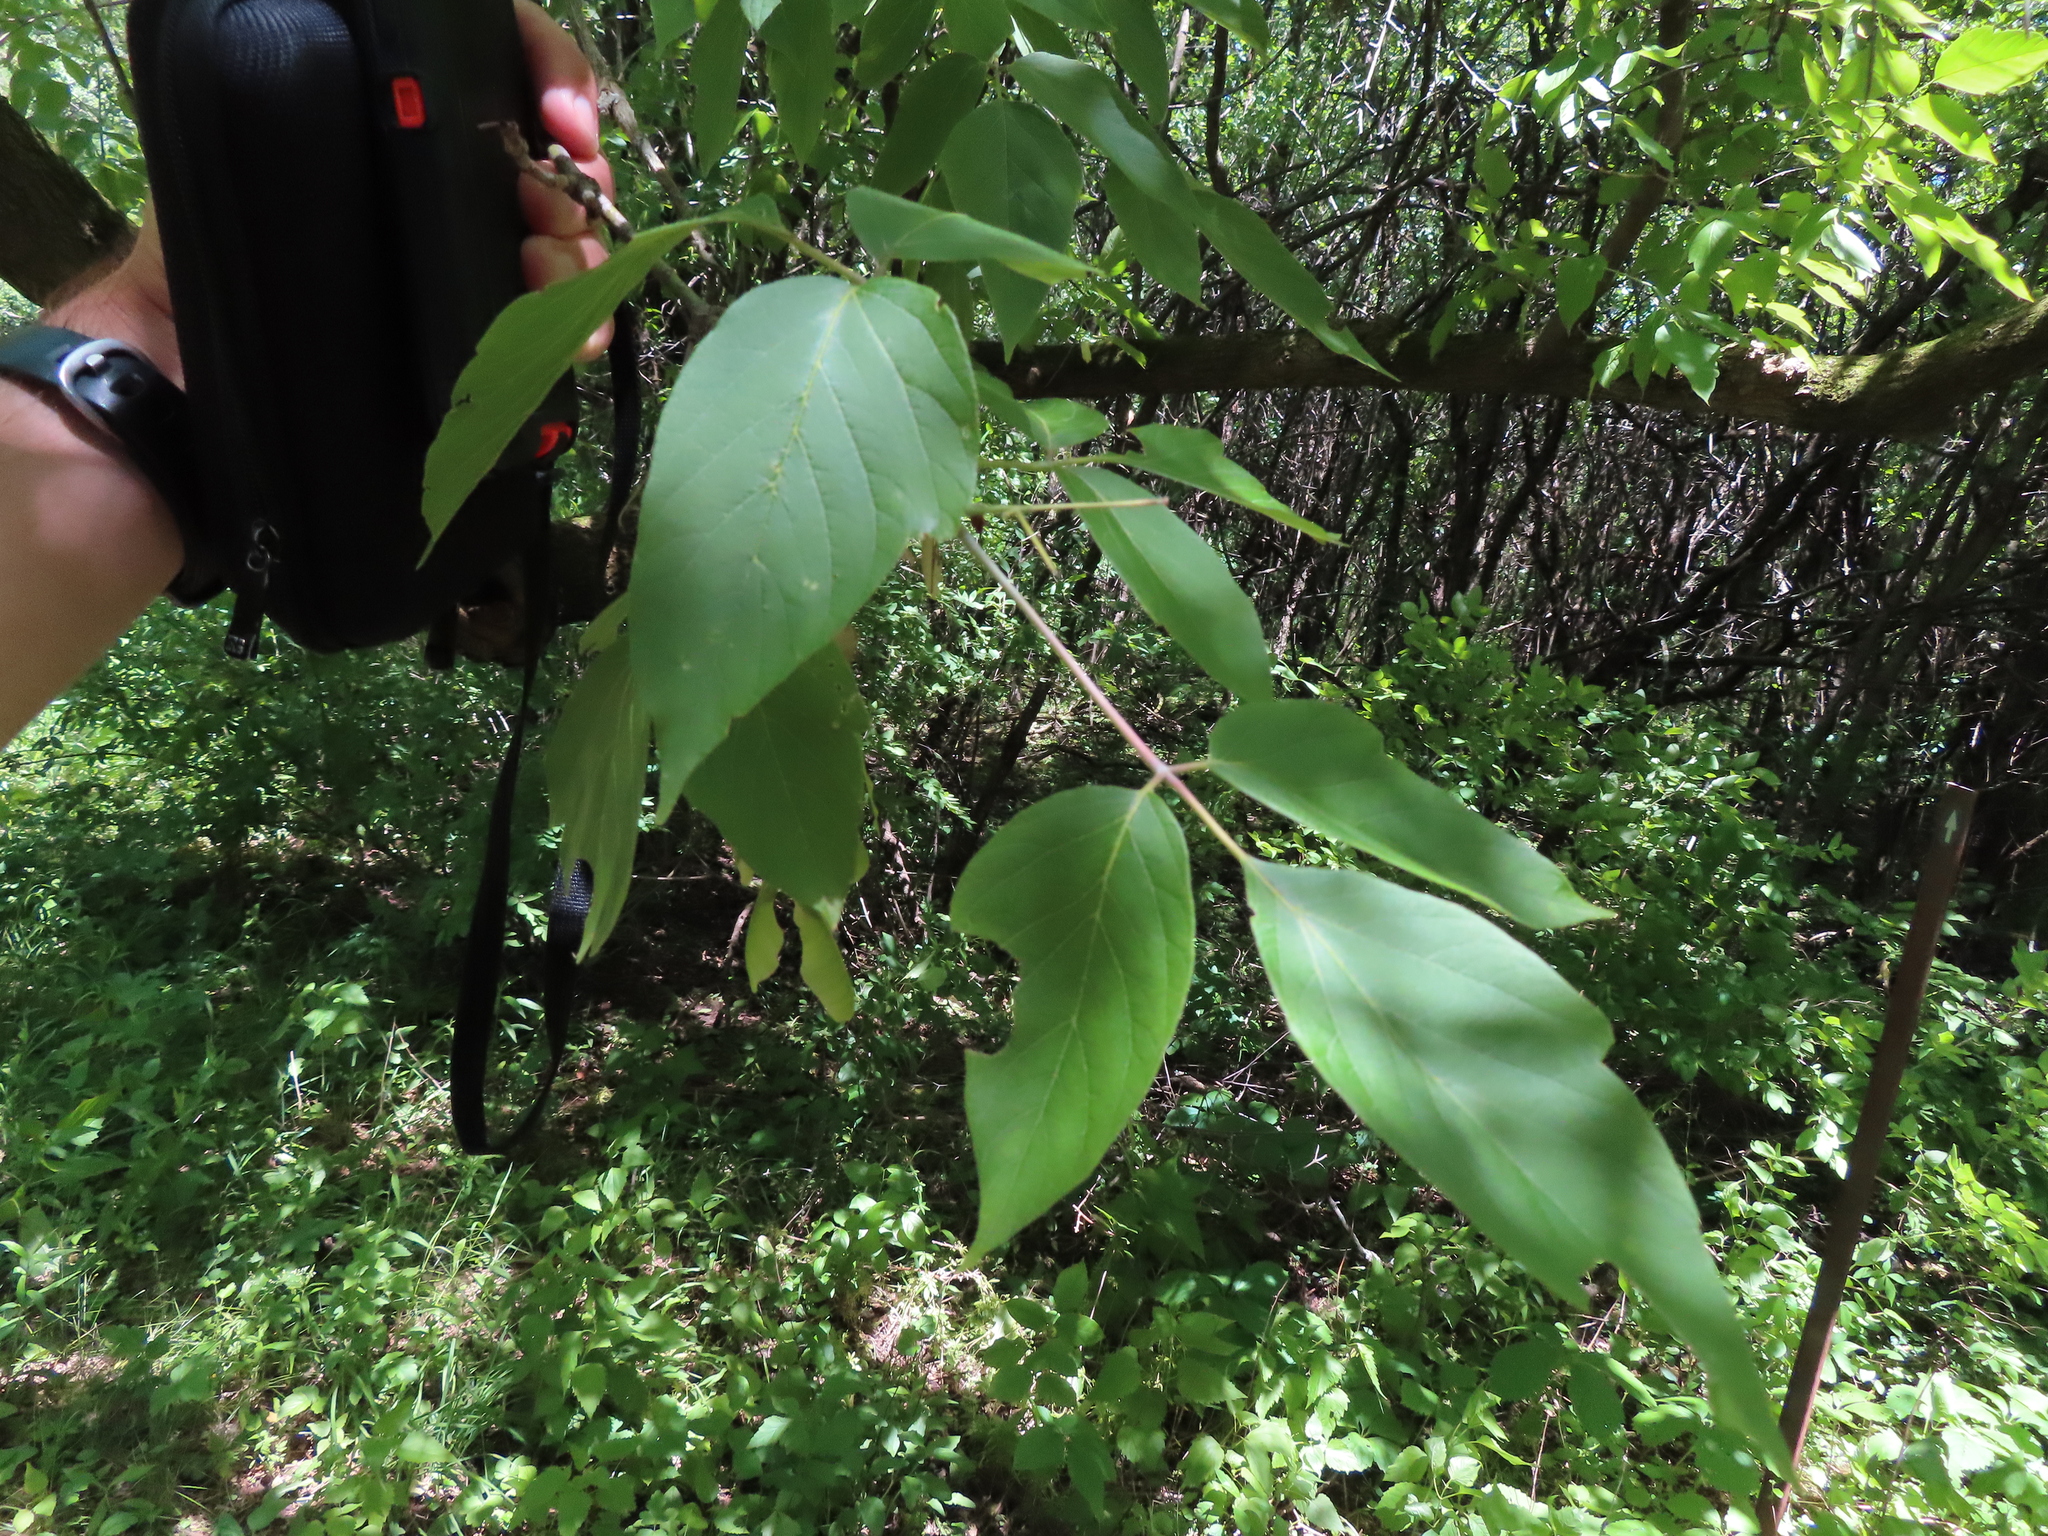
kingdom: Plantae
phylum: Tracheophyta
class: Magnoliopsida
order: Sapindales
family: Sapindaceae
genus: Acer
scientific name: Acer negundo
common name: Ashleaf maple
